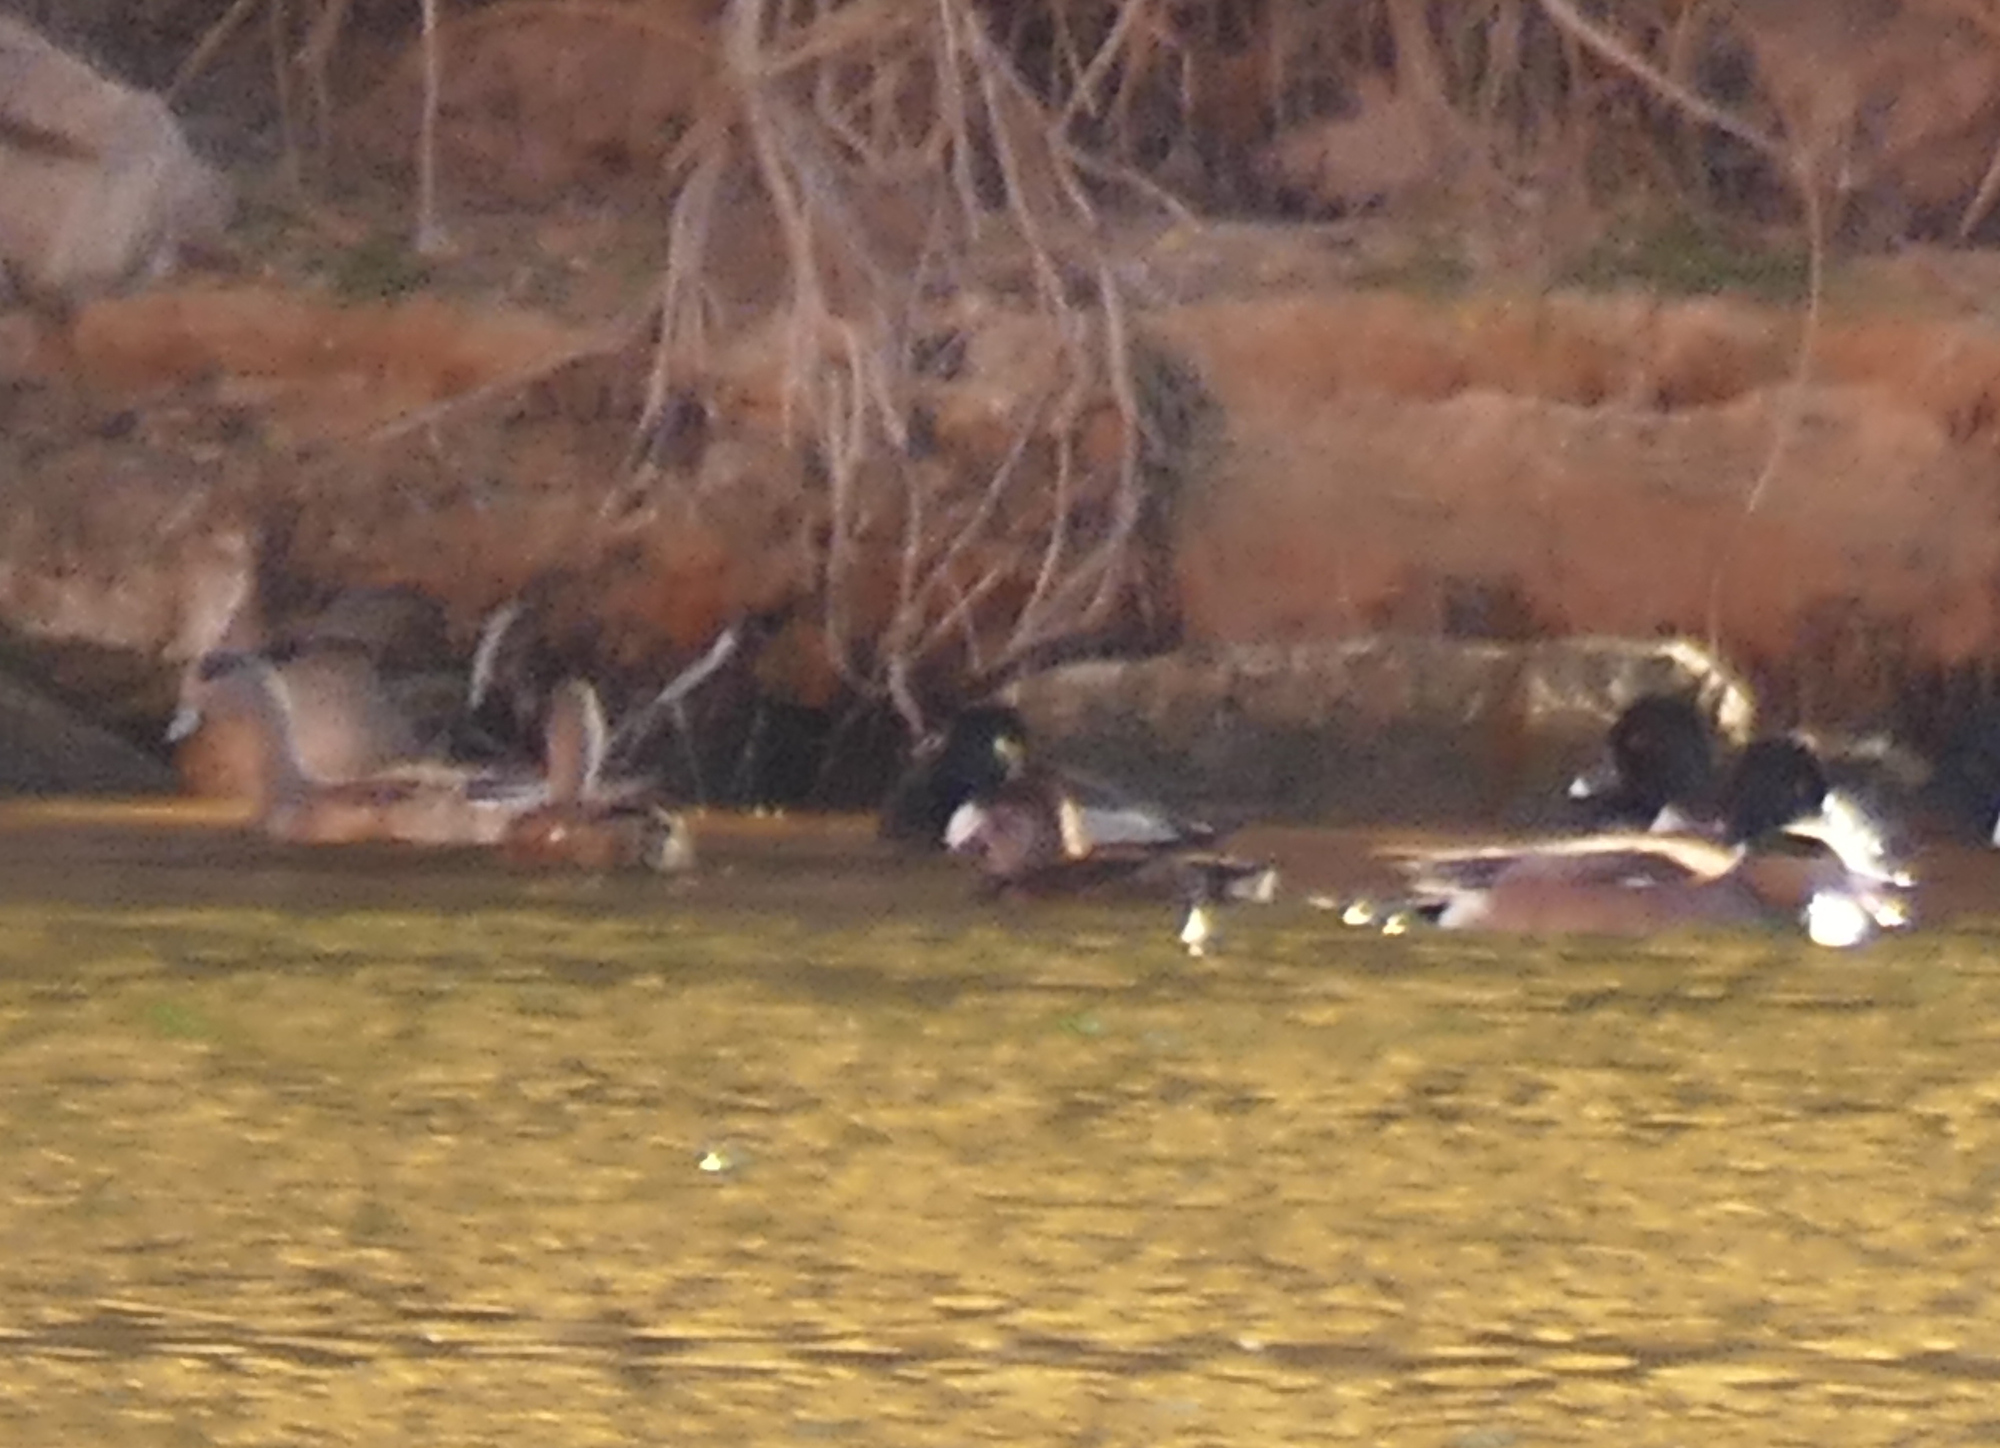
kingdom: Animalia
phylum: Chordata
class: Aves
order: Anseriformes
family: Anatidae
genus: Mareca
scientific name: Mareca americana
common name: American wigeon
